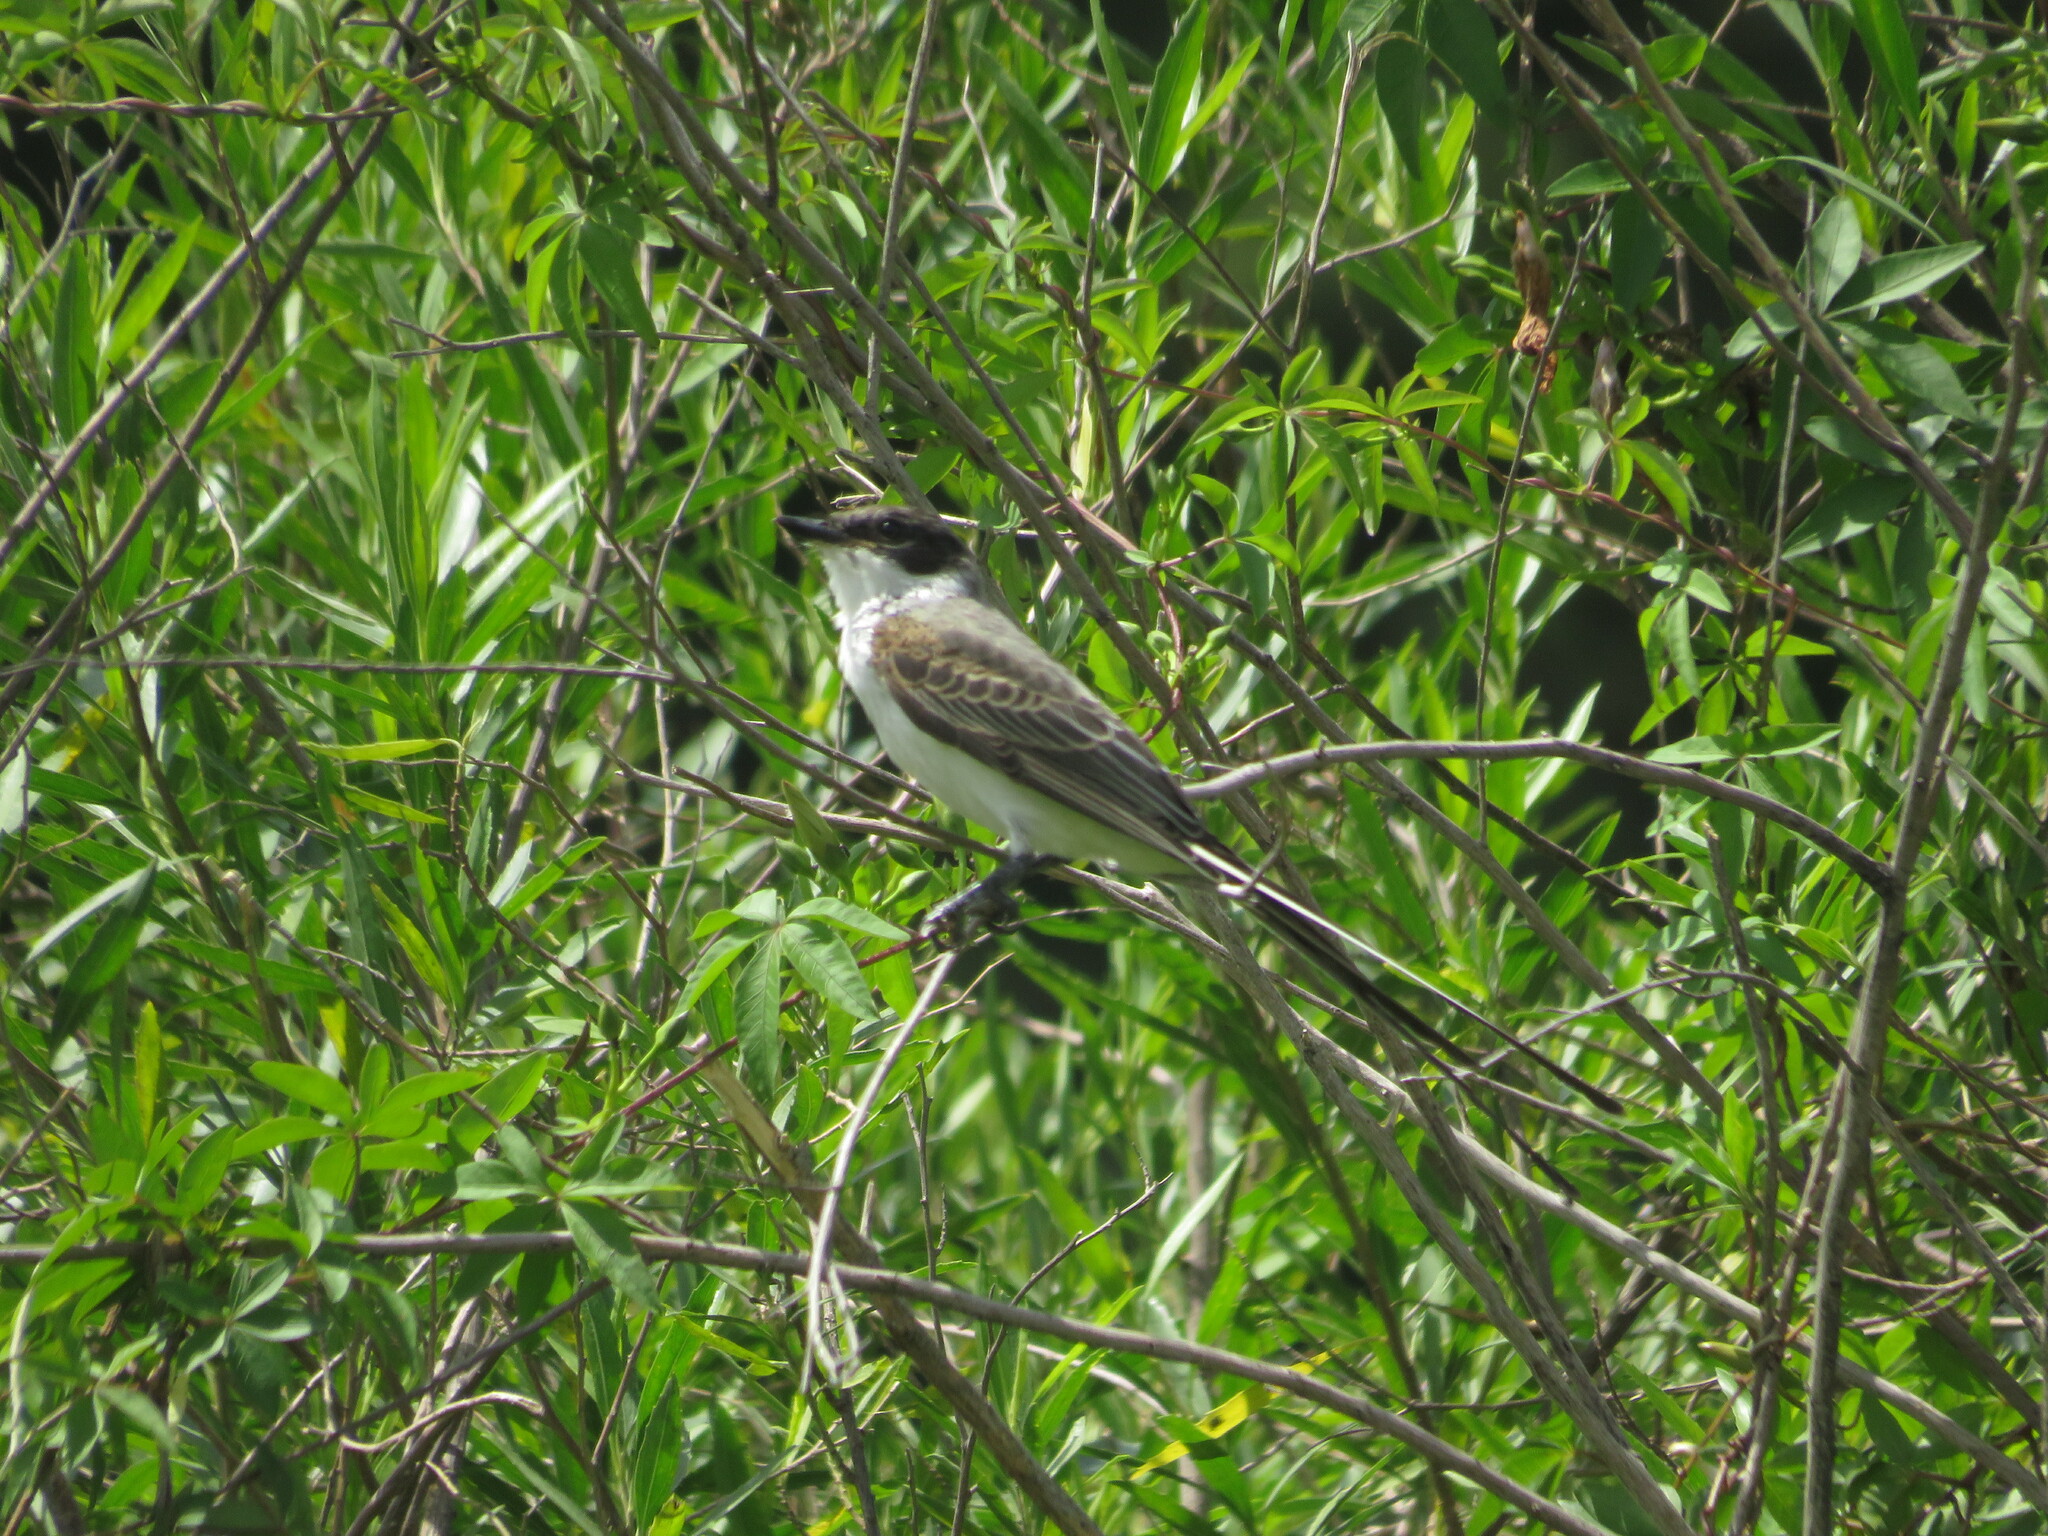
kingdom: Animalia
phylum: Chordata
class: Aves
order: Passeriformes
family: Tyrannidae
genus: Tyrannus
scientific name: Tyrannus savana
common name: Fork-tailed flycatcher
